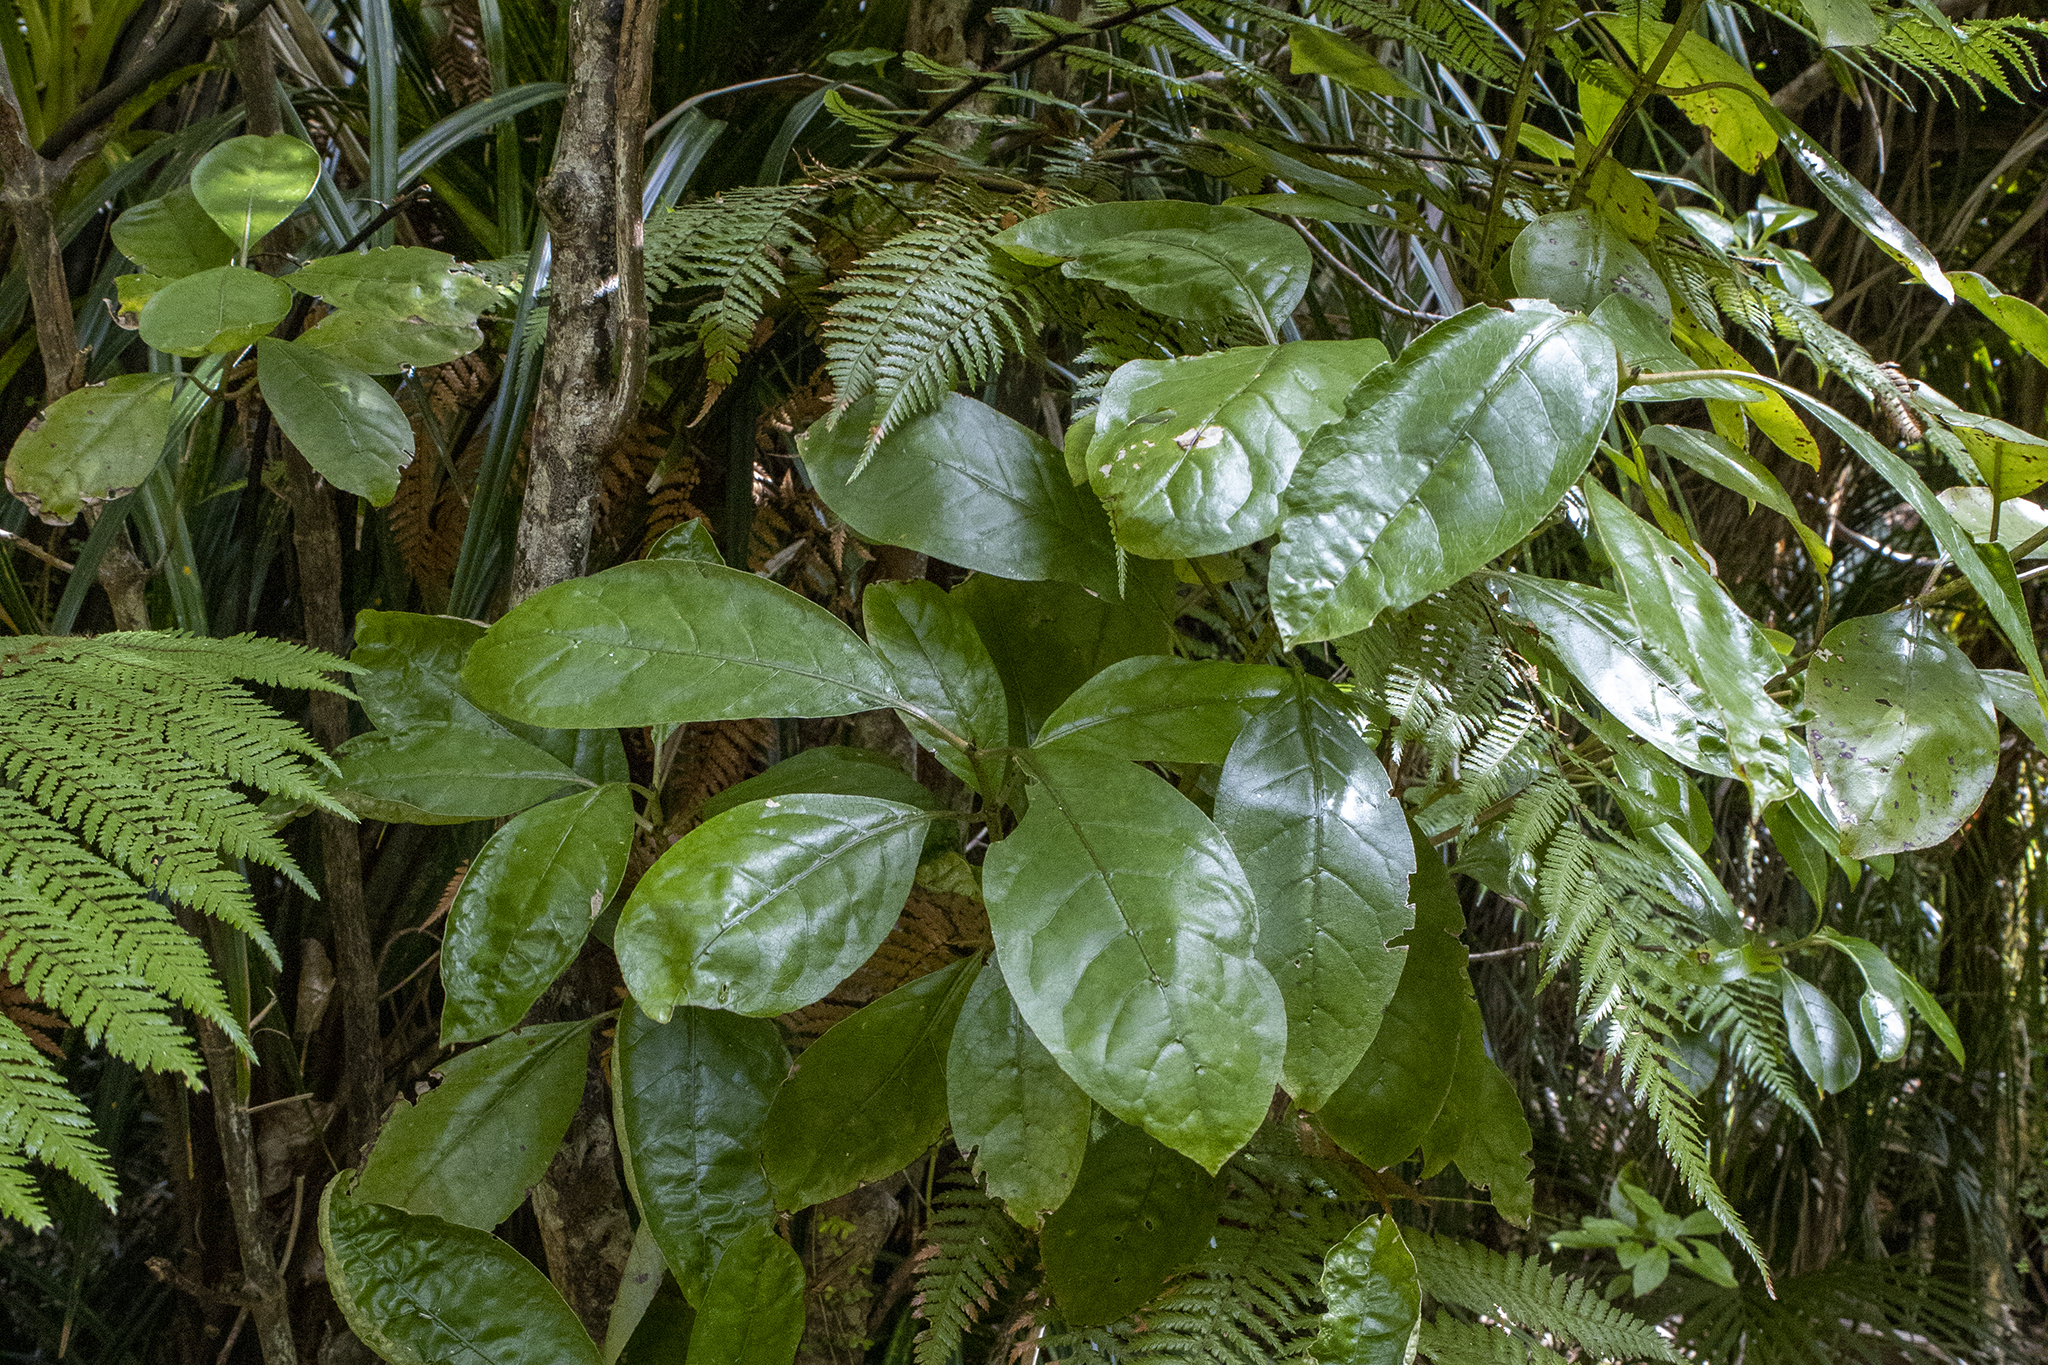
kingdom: Plantae
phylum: Tracheophyta
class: Magnoliopsida
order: Gentianales
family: Rubiaceae
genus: Coprosma
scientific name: Coprosma autumnalis
